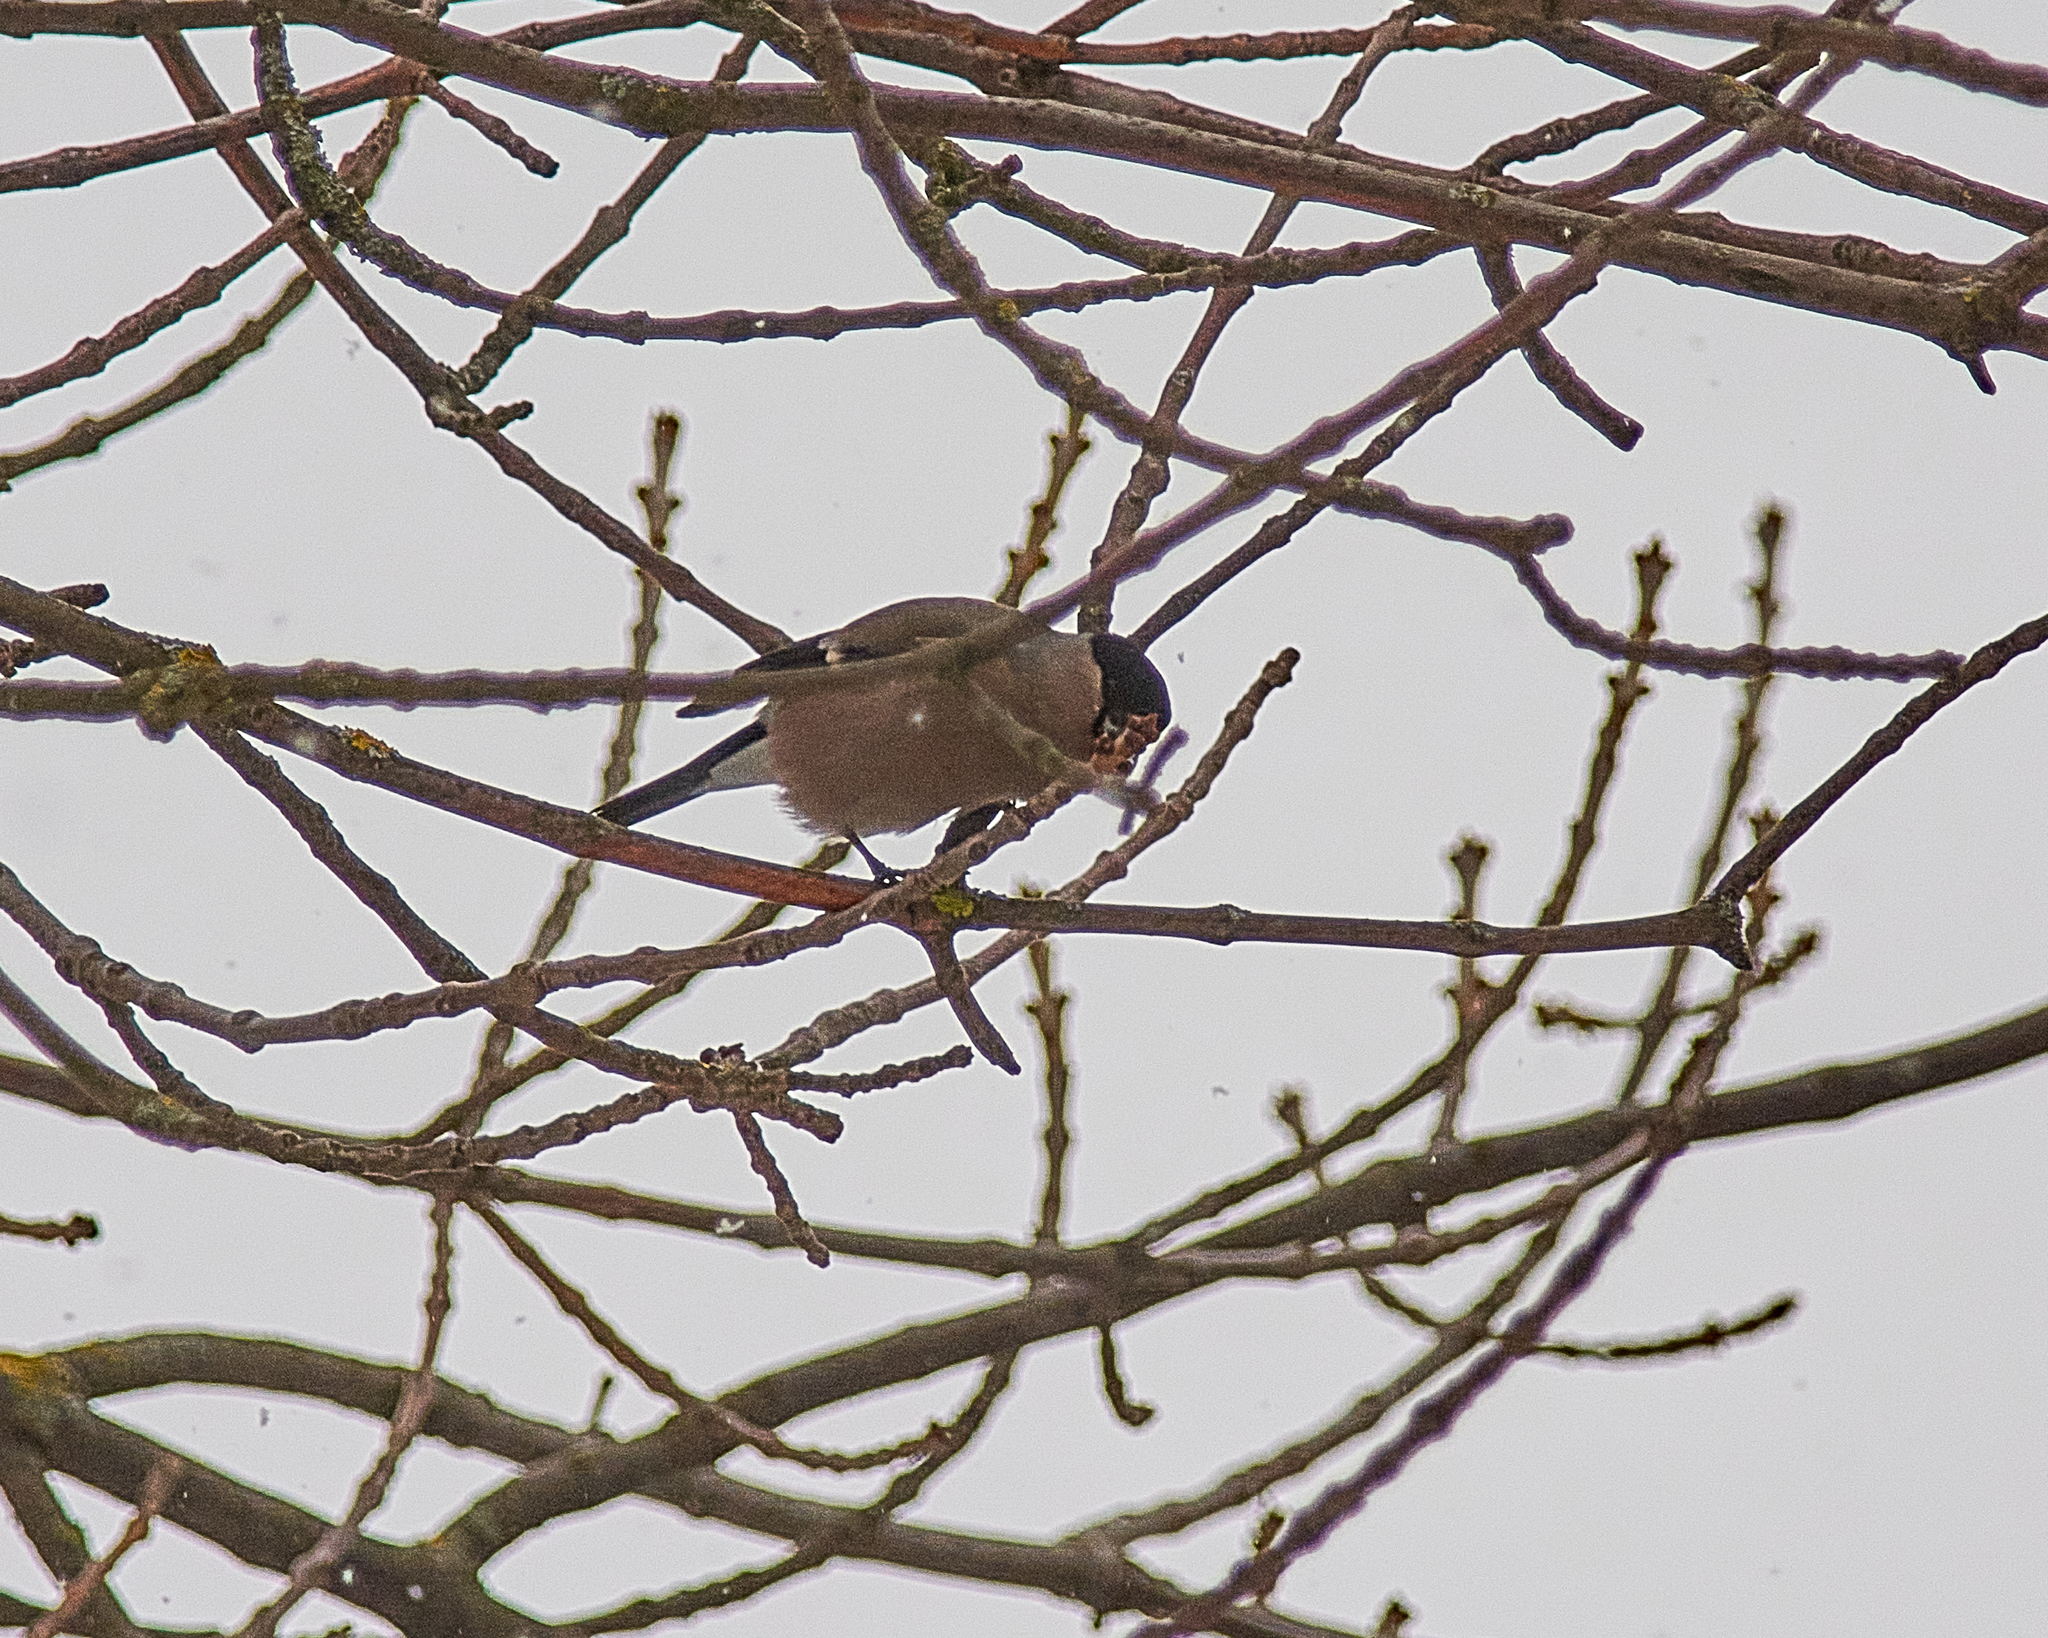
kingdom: Animalia
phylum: Chordata
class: Aves
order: Passeriformes
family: Fringillidae
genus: Pyrrhula
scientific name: Pyrrhula pyrrhula
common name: Eurasian bullfinch
